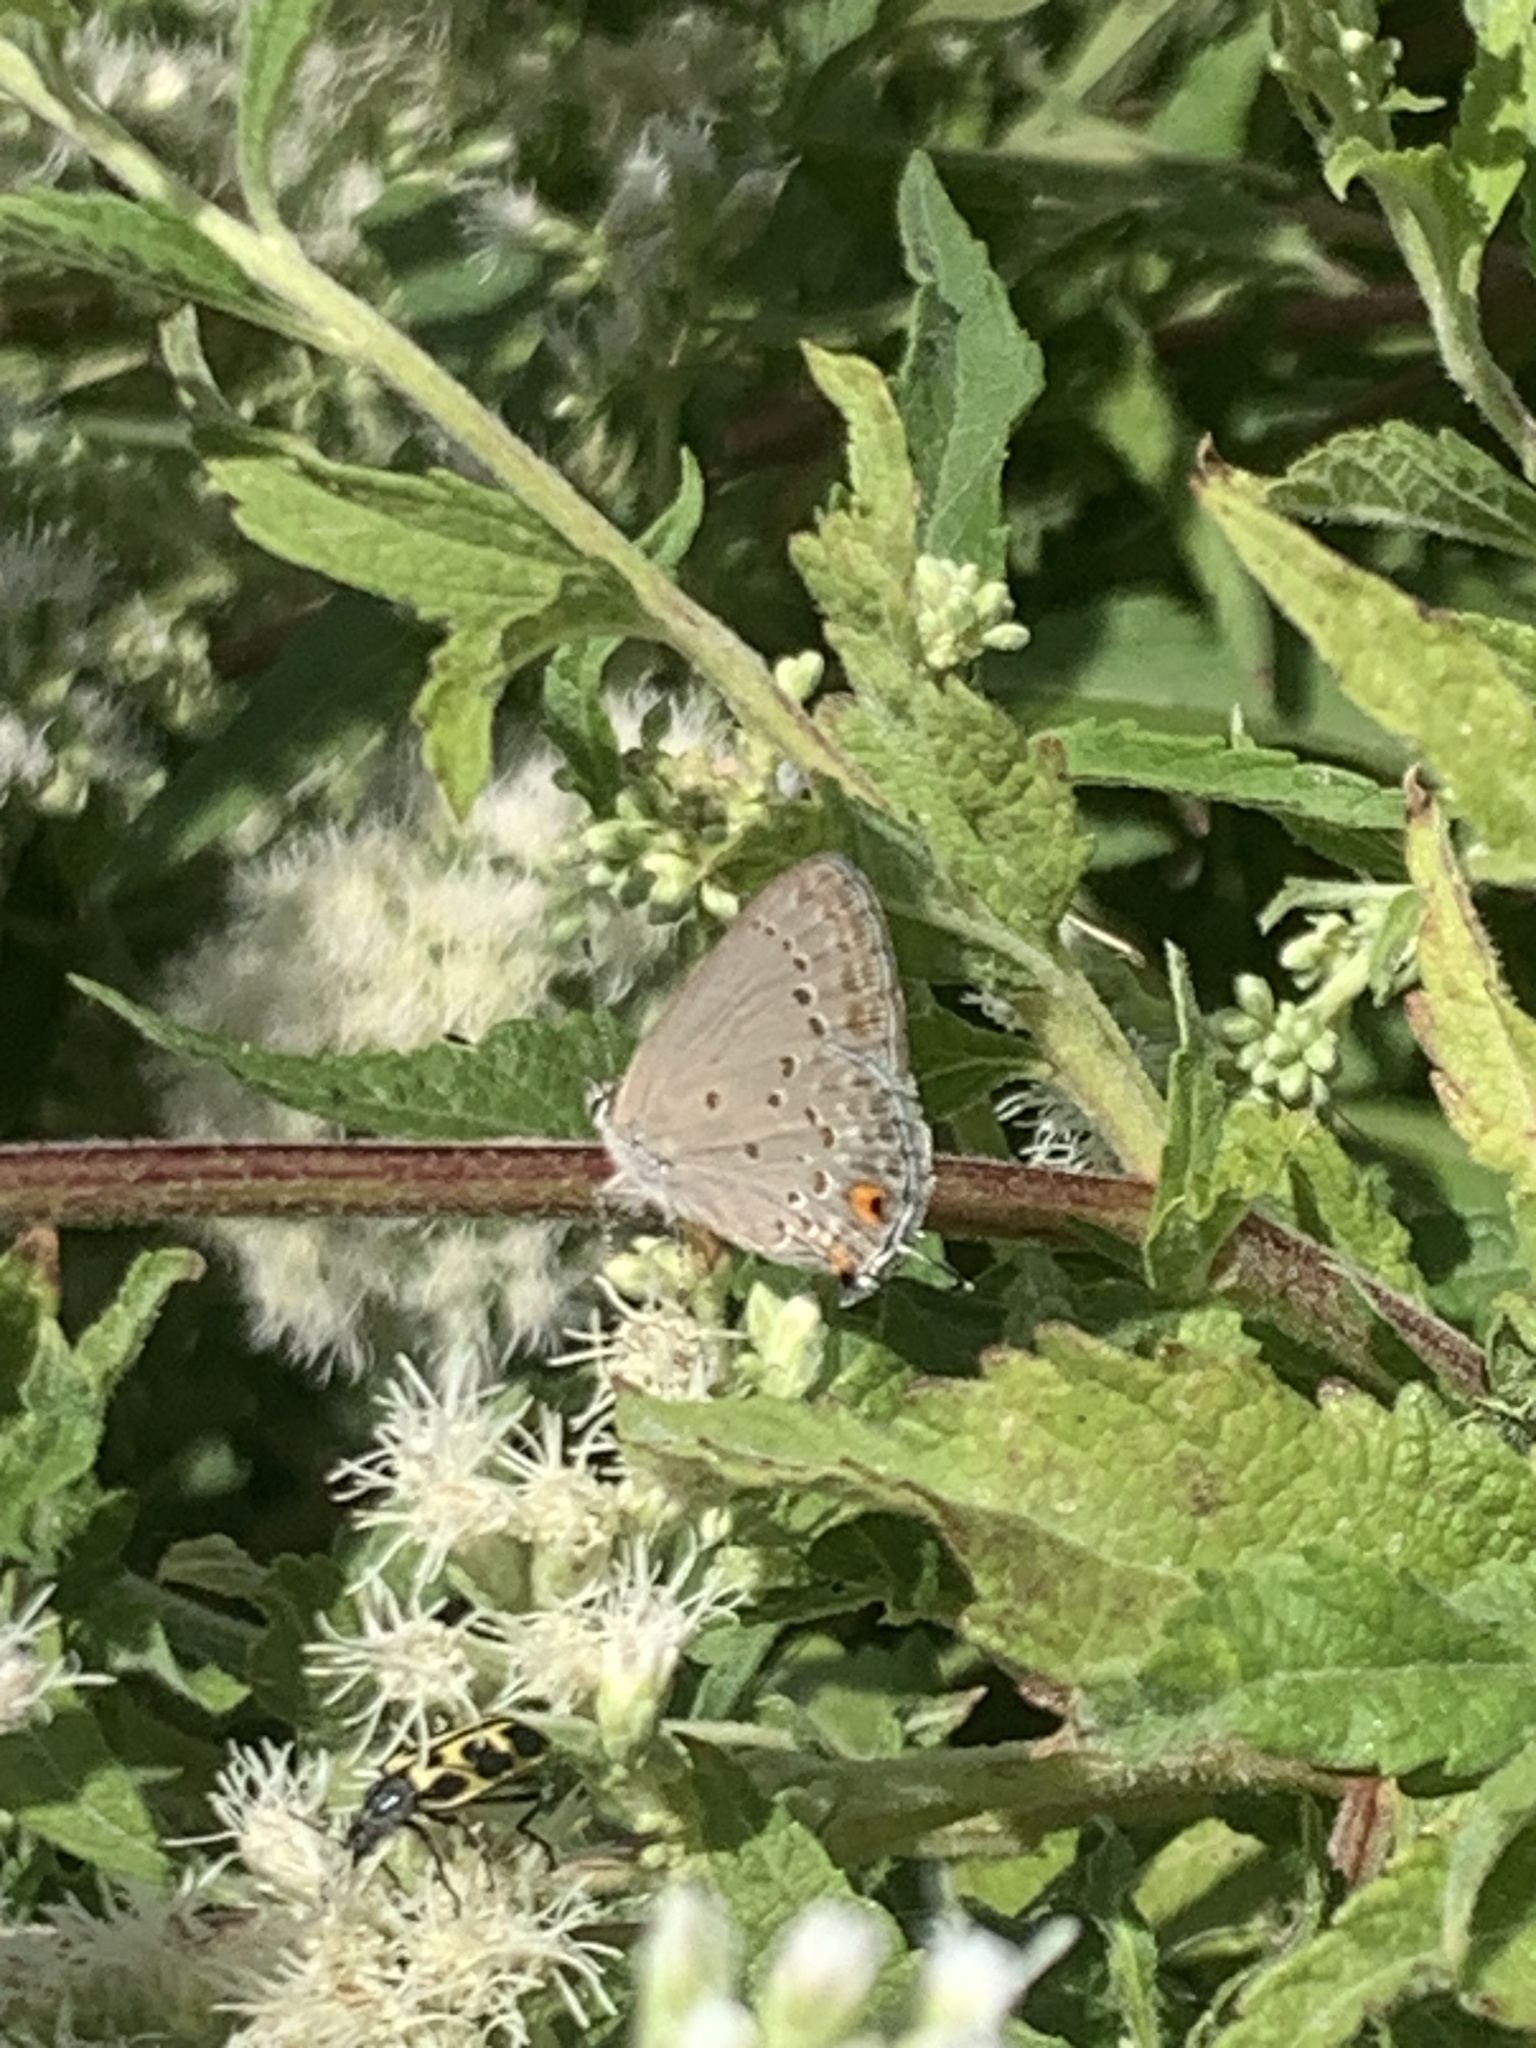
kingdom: Animalia
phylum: Arthropoda
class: Insecta
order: Lepidoptera
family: Lycaenidae
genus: Strymon
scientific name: Strymon eurytulus
